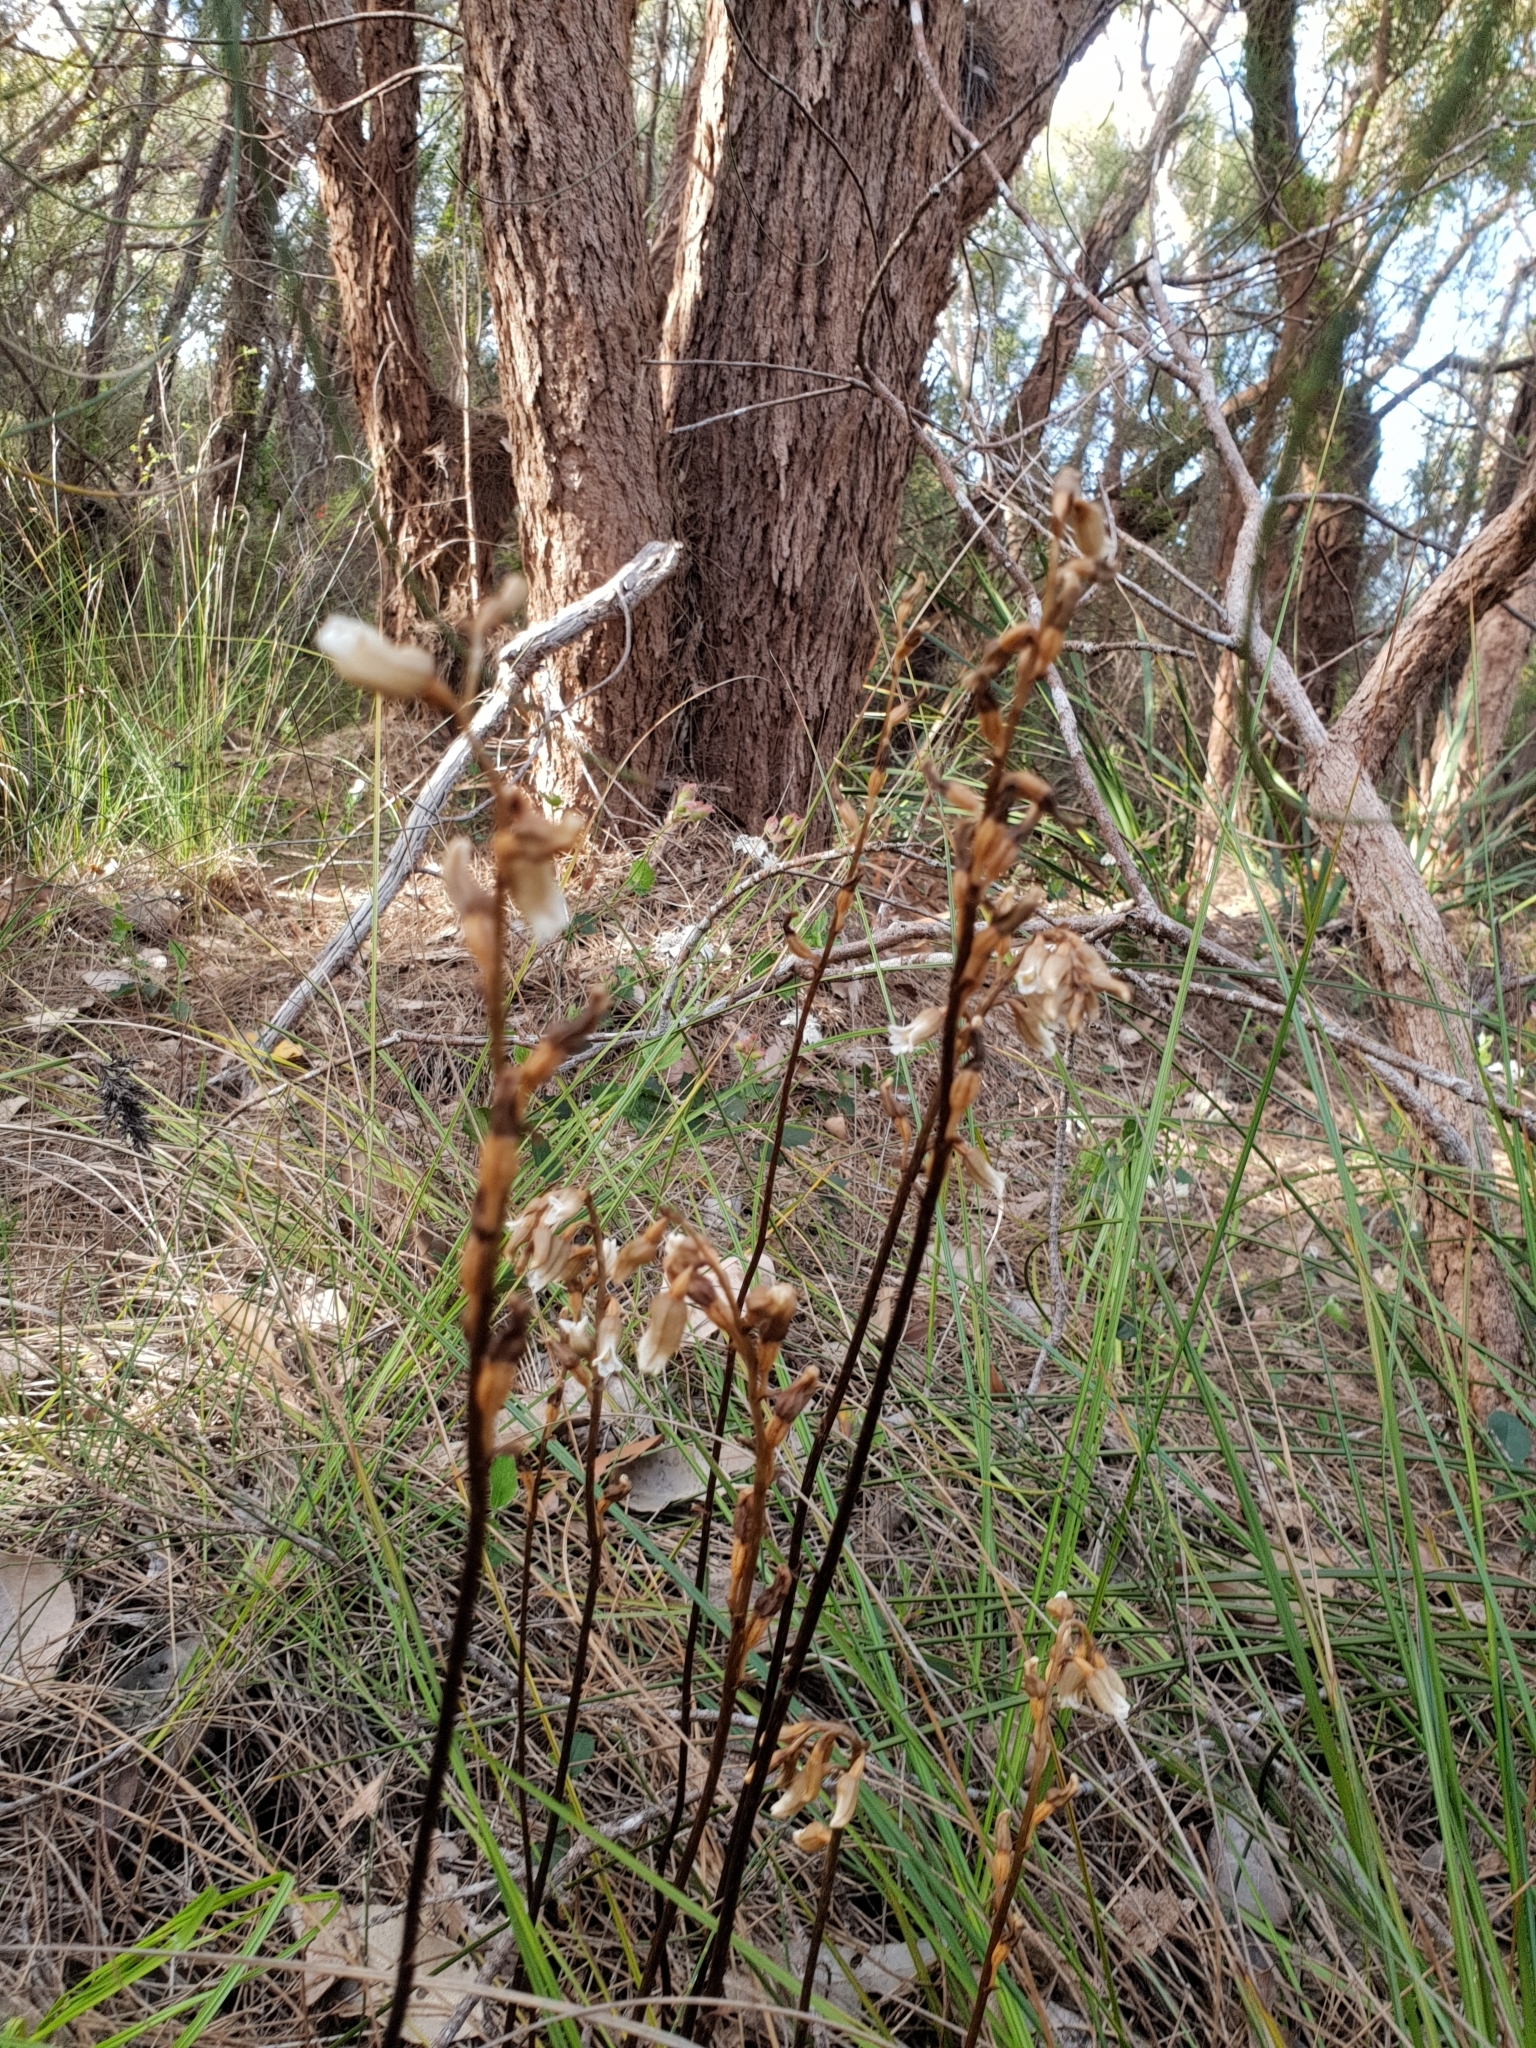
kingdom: Plantae
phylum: Tracheophyta
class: Liliopsida
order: Asparagales
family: Orchidaceae
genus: Gastrodia
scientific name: Gastrodia lacista
